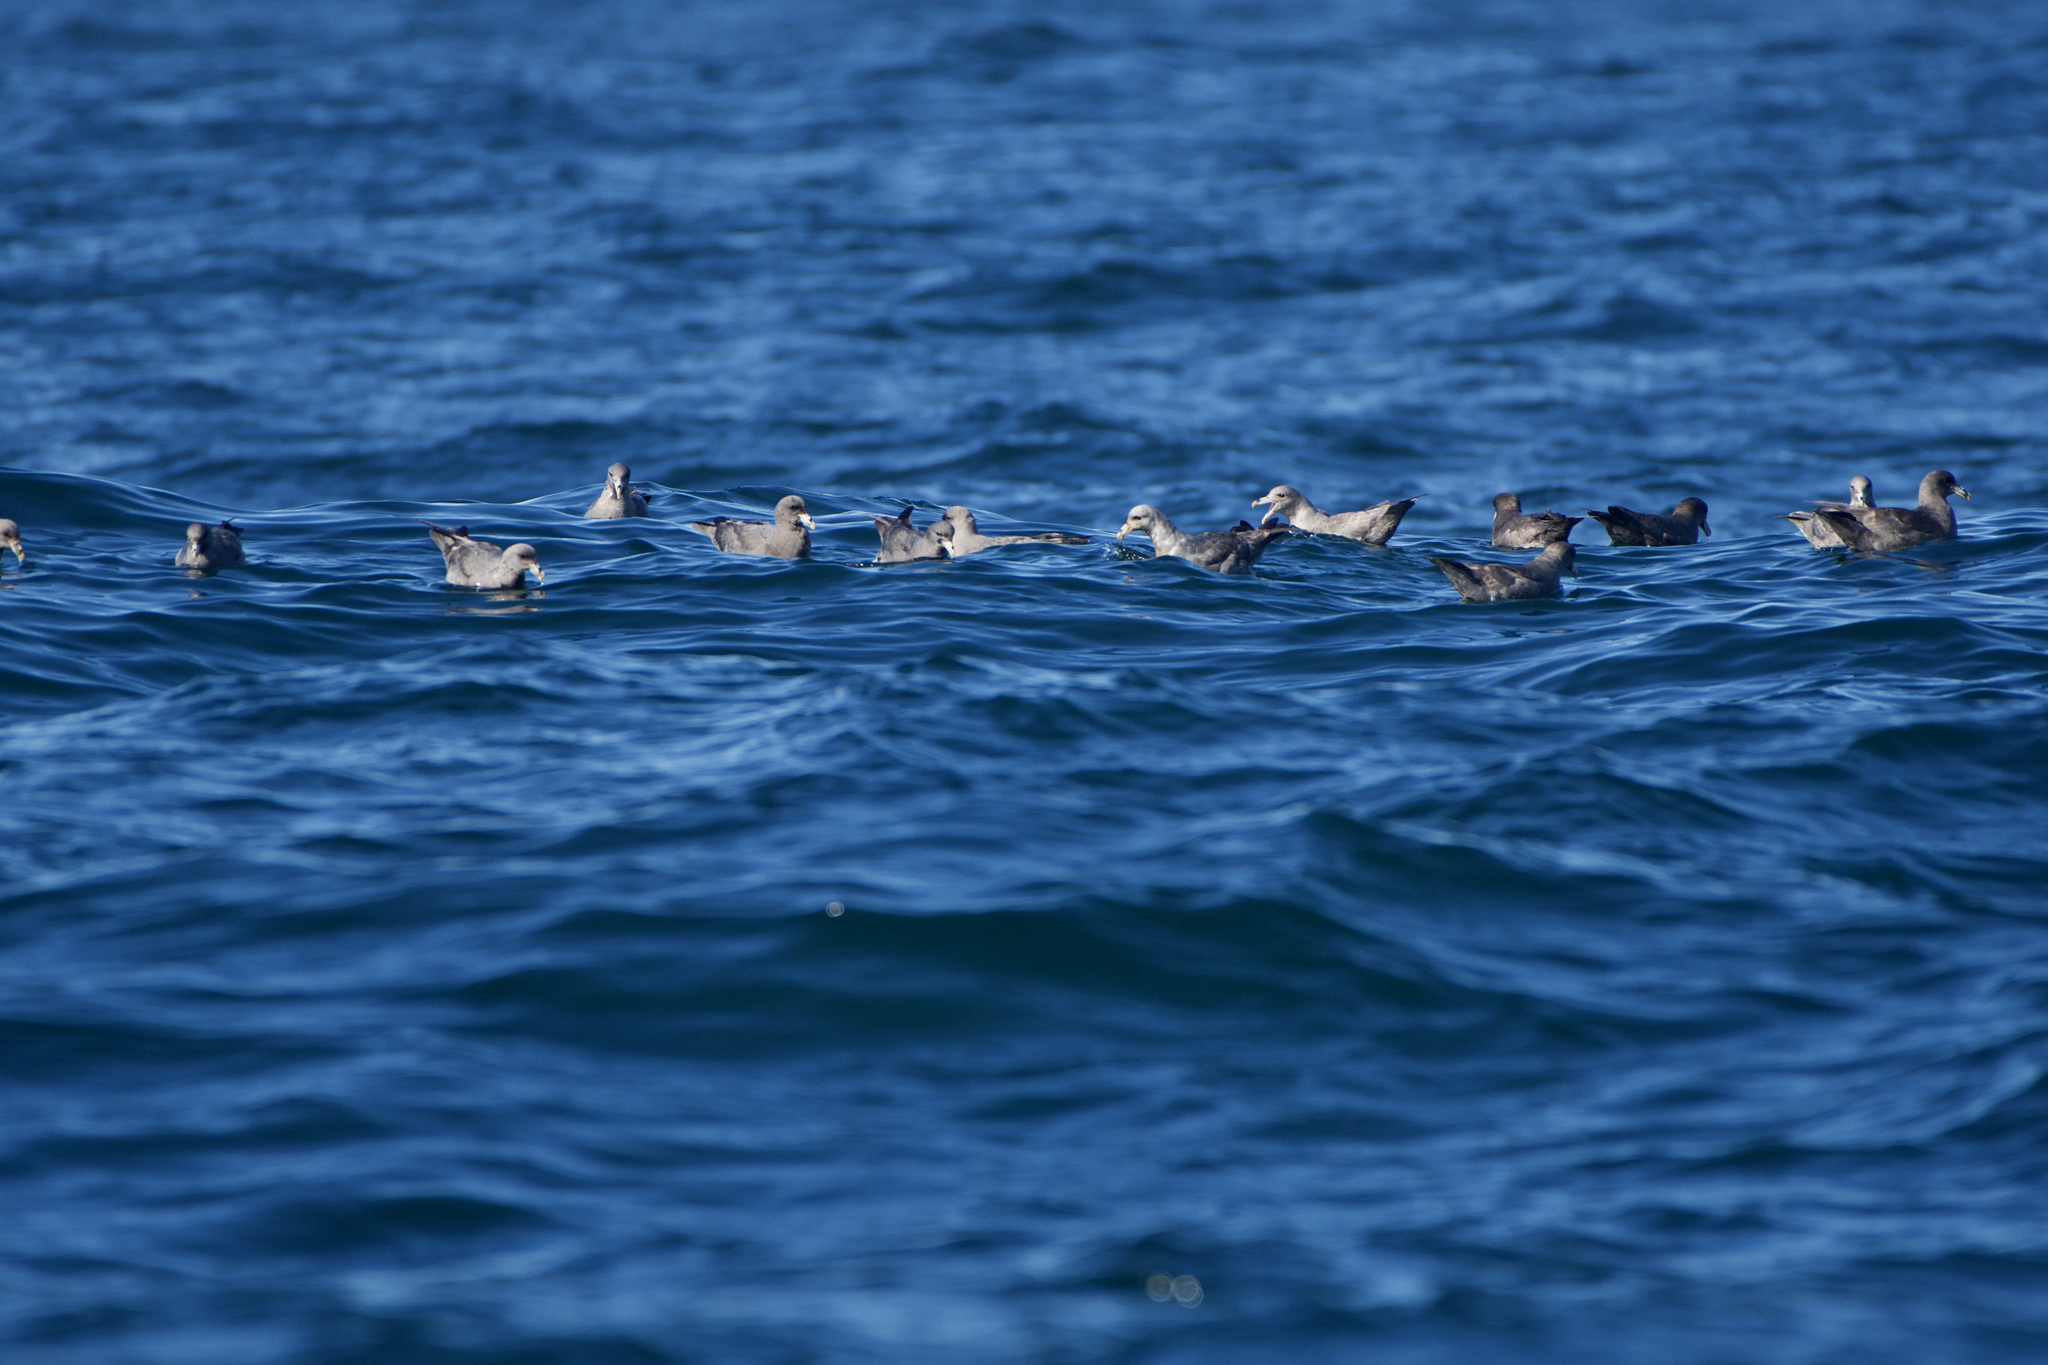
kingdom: Animalia
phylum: Chordata
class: Aves
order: Procellariiformes
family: Procellariidae
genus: Fulmarus
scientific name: Fulmarus glacialis
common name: Northern fulmar
